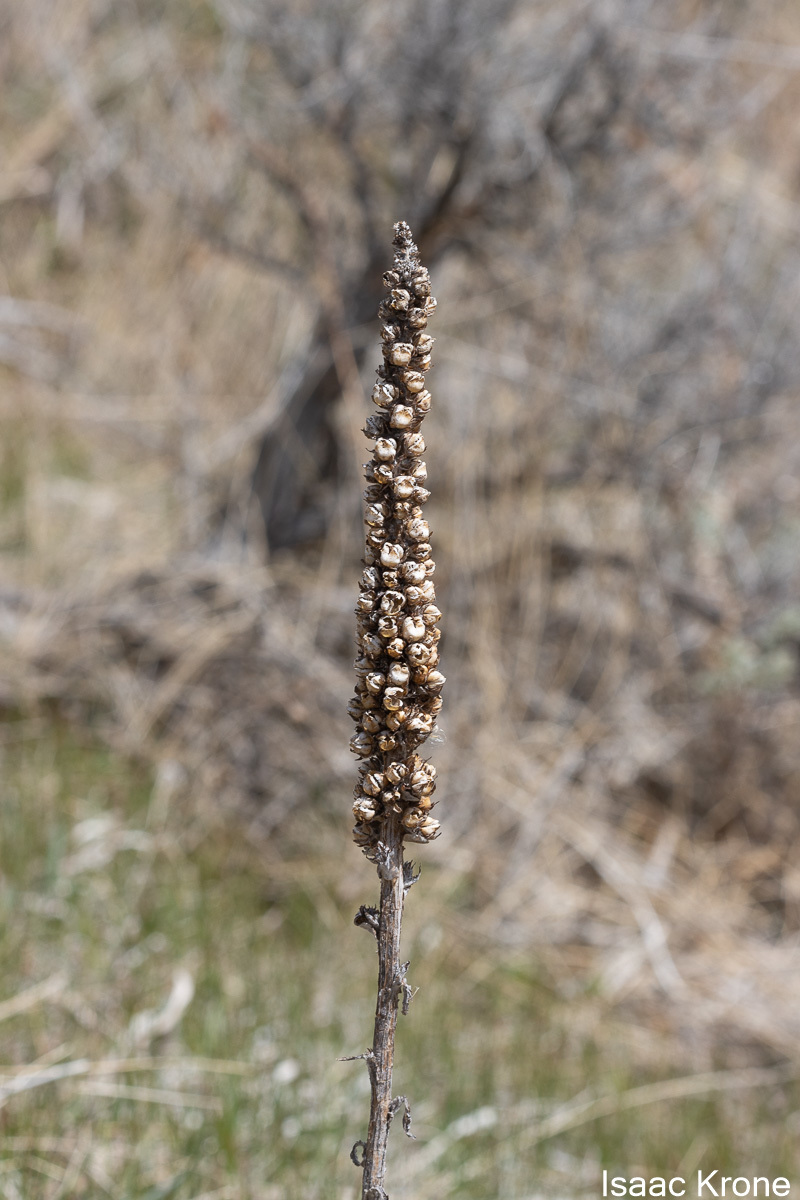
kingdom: Plantae
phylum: Tracheophyta
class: Magnoliopsida
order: Lamiales
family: Scrophulariaceae
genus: Verbascum
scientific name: Verbascum thapsus
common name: Common mullein
